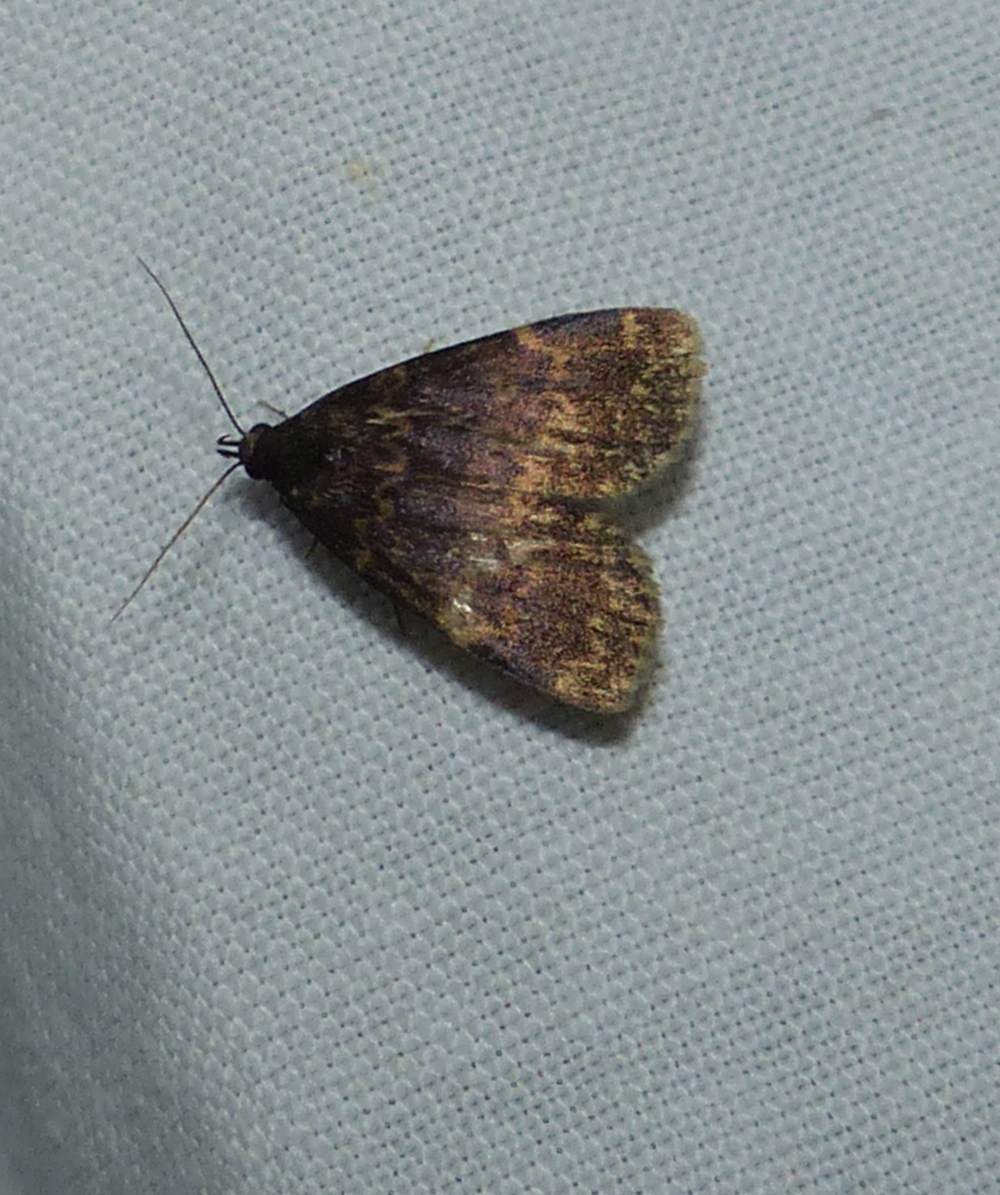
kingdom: Animalia
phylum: Arthropoda
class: Insecta
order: Lepidoptera
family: Erebidae
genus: Idia
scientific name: Idia lubricalis
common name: Twin-striped tabby
